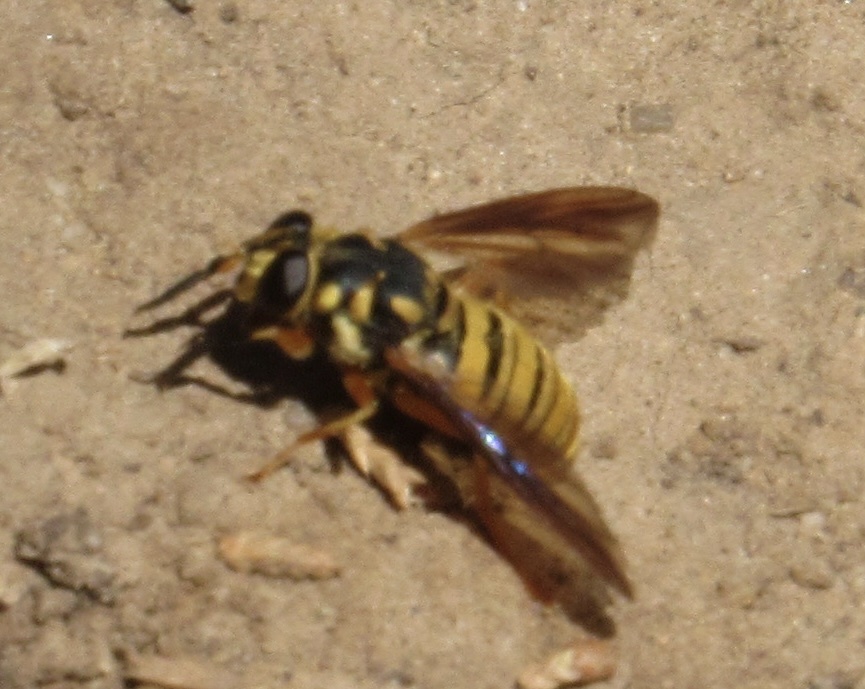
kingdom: Animalia
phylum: Arthropoda
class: Insecta
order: Diptera
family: Syrphidae
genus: Temnostoma
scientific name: Temnostoma daochum
